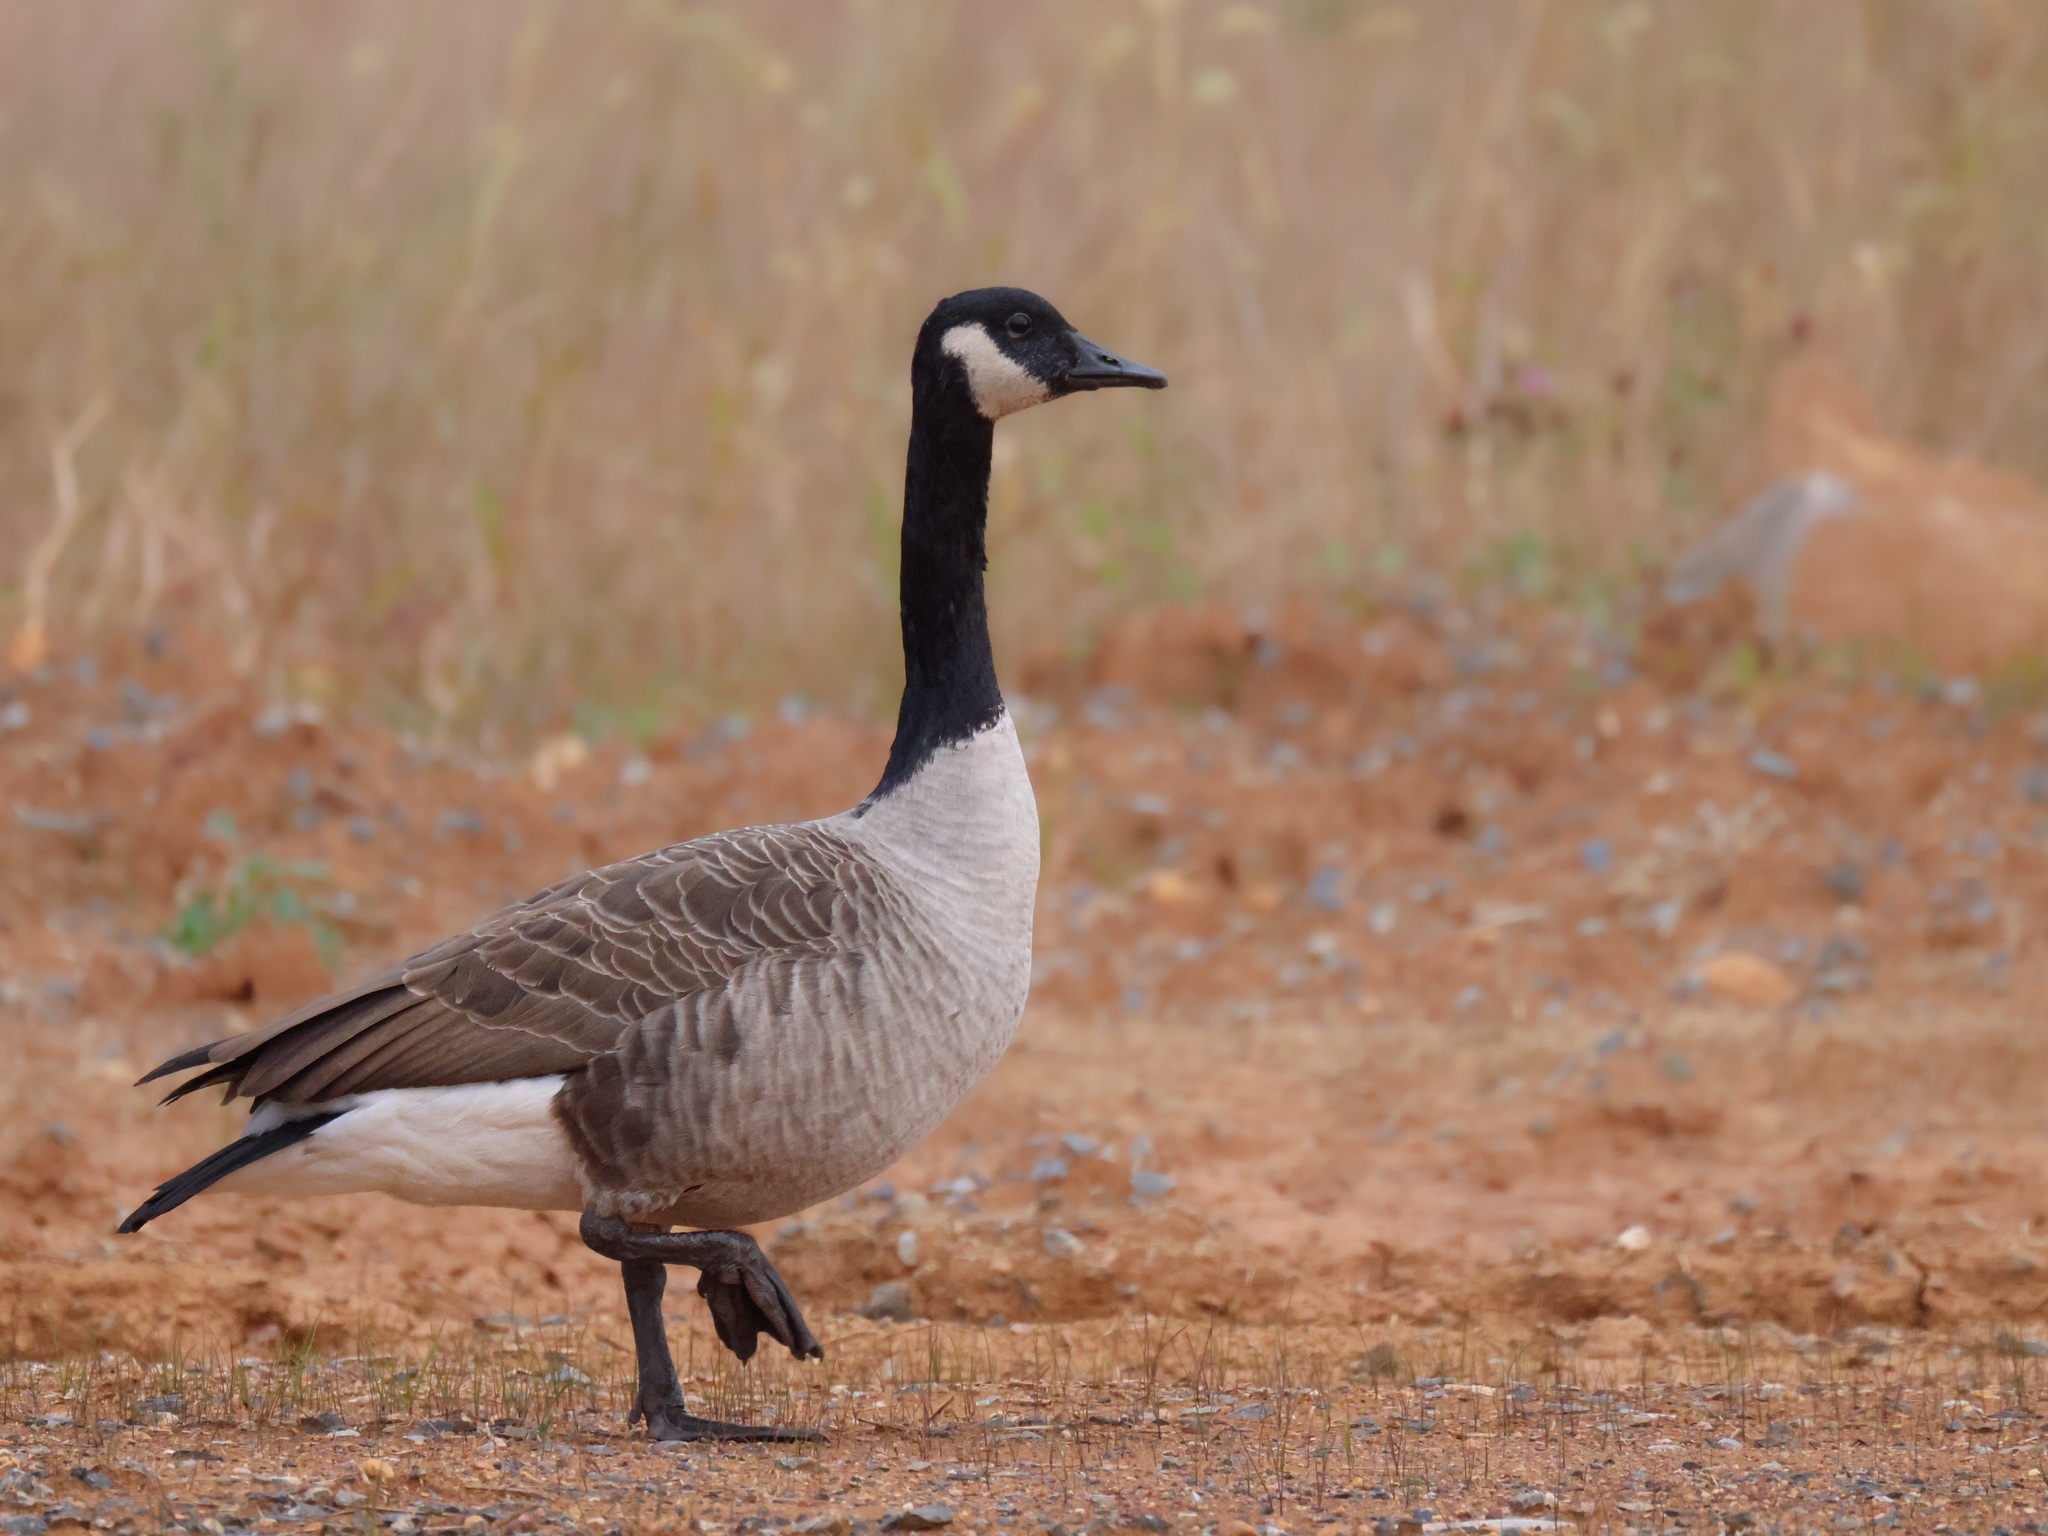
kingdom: Animalia
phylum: Chordata
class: Aves
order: Anseriformes
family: Anatidae
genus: Branta
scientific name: Branta canadensis
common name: Canada goose
